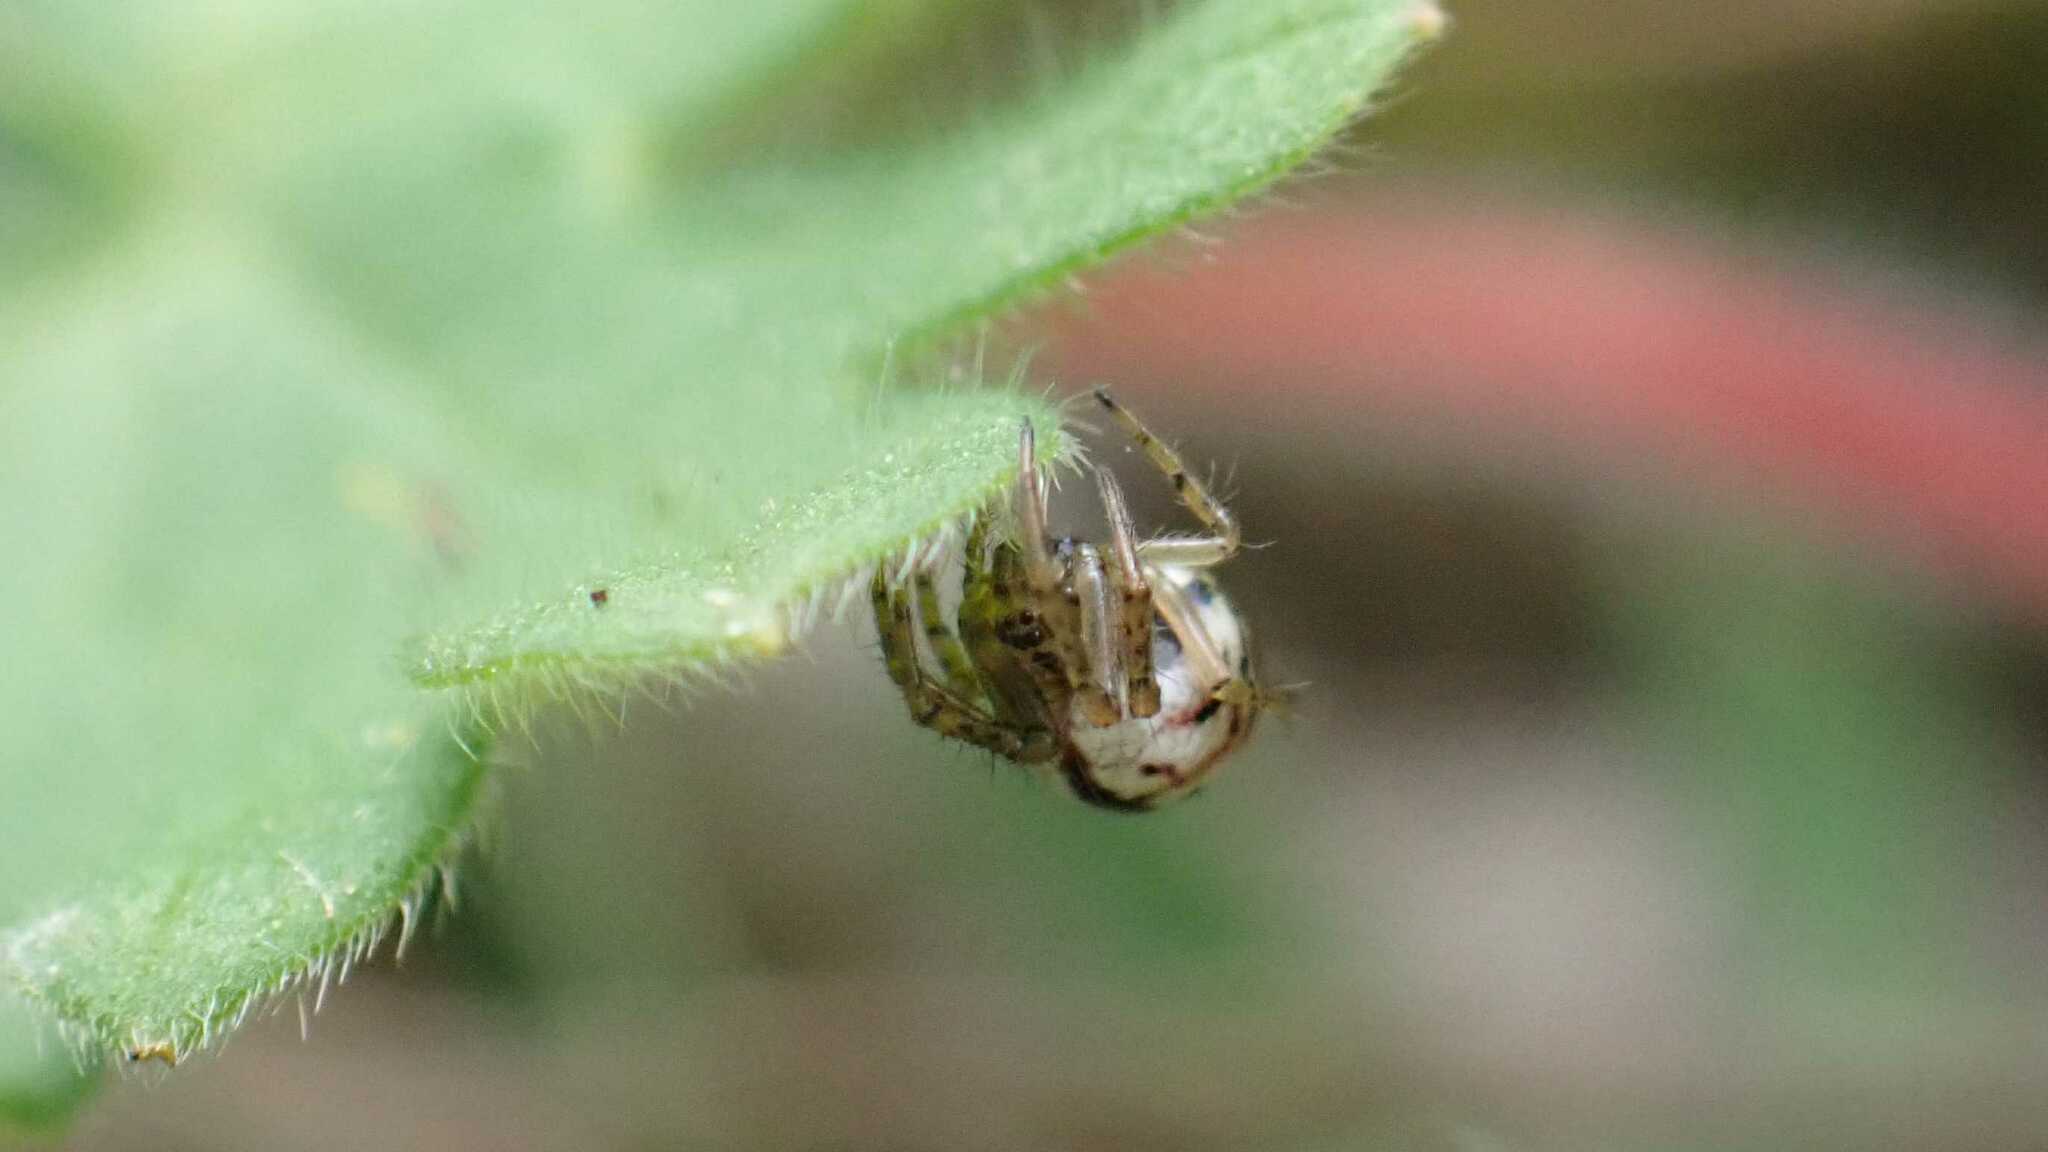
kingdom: Animalia
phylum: Arthropoda
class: Arachnida
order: Araneae
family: Araneidae
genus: Mangora
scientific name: Mangora acalypha
